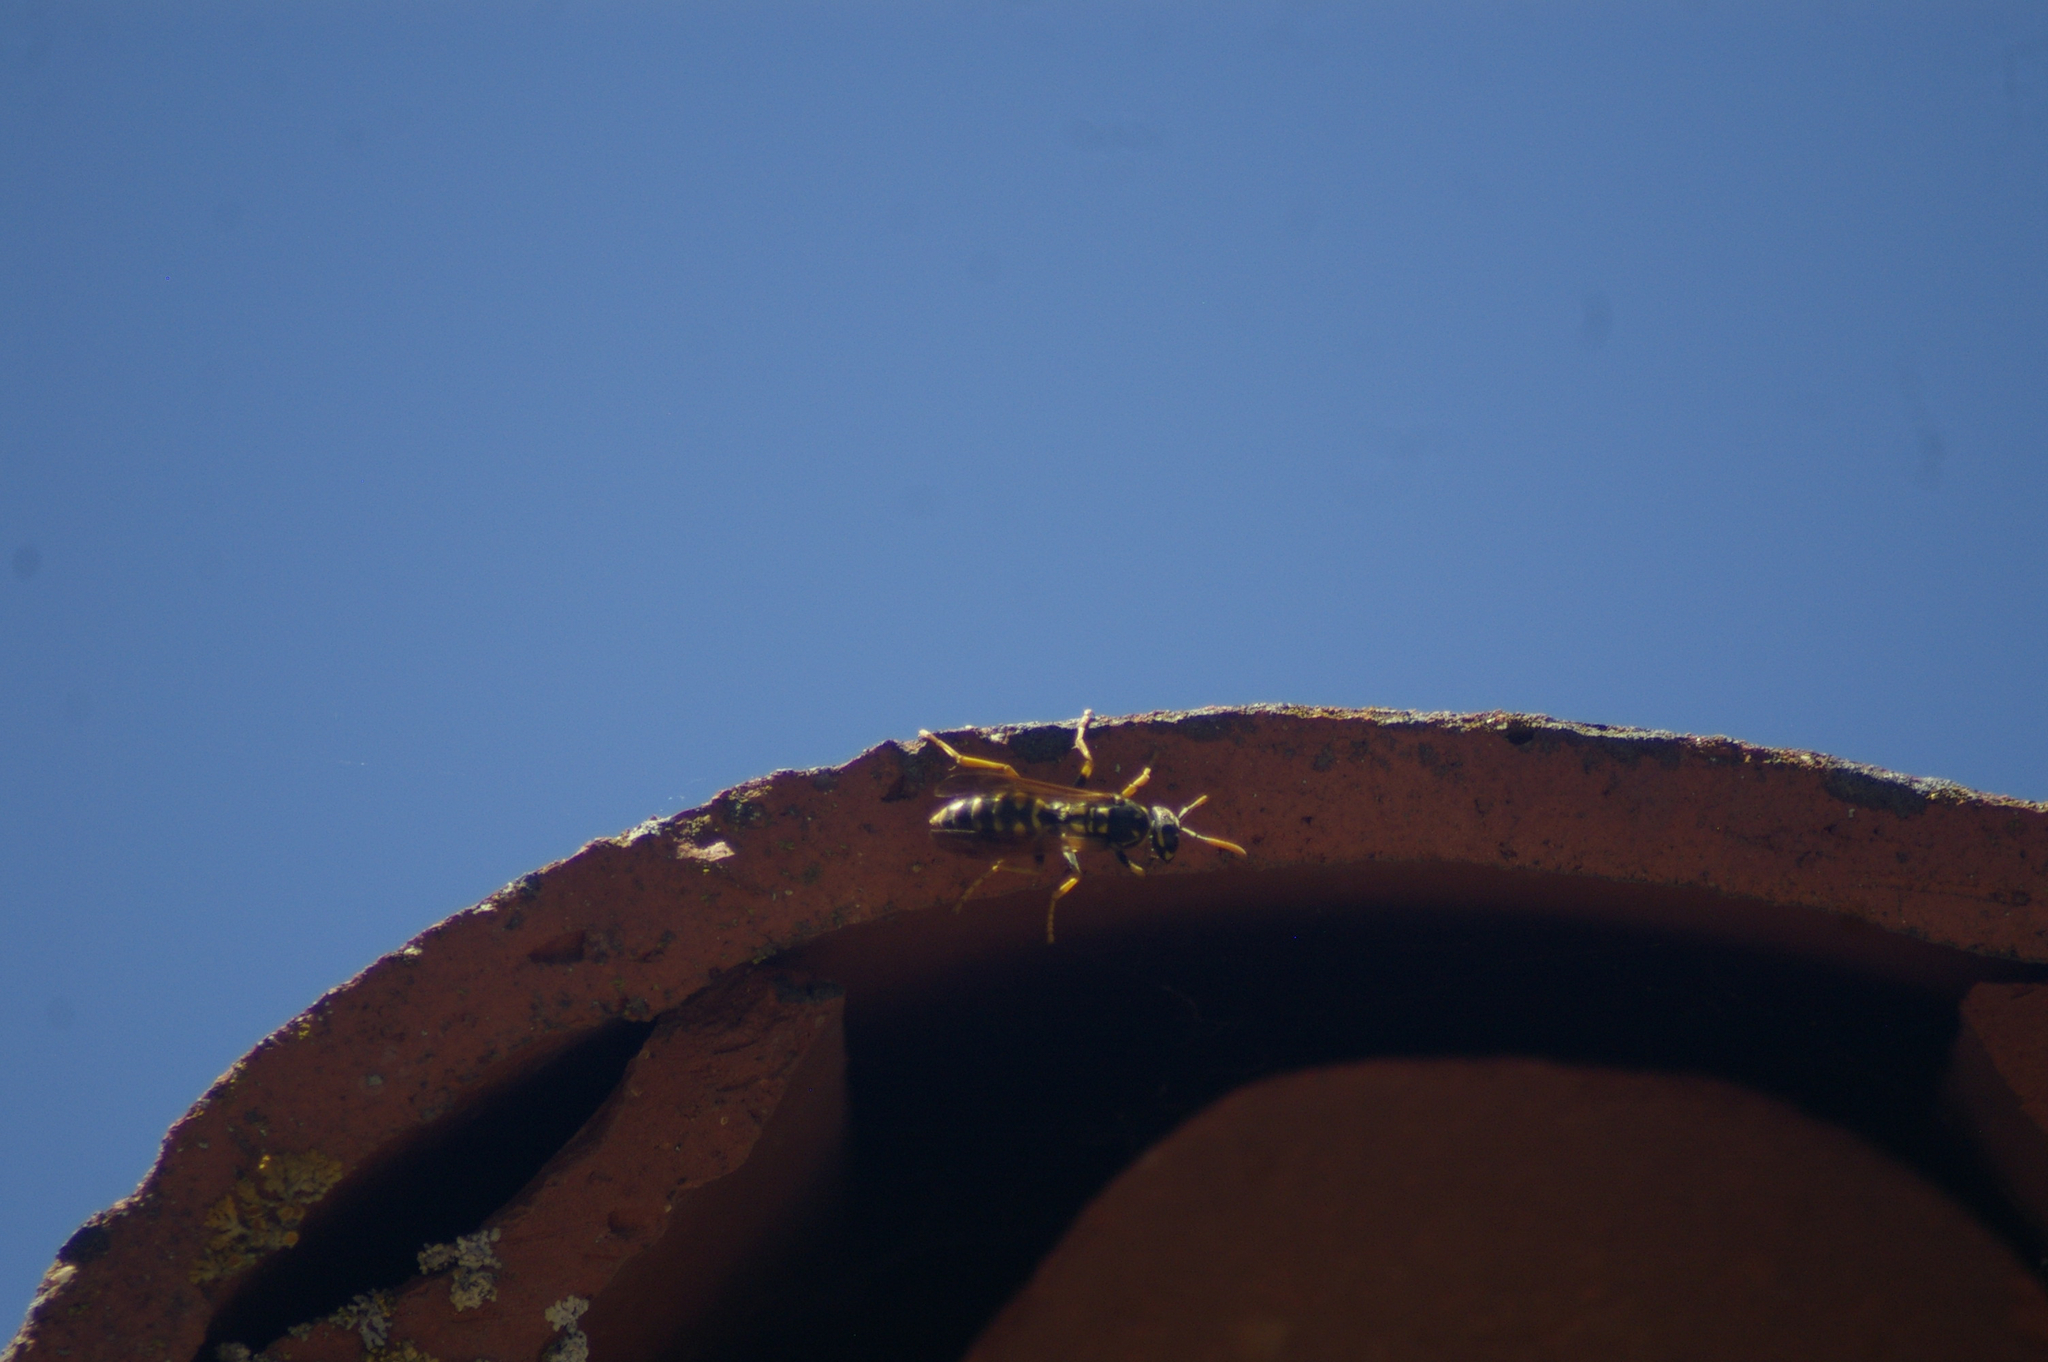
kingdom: Animalia
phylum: Arthropoda
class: Insecta
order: Hymenoptera
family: Eumenidae
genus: Polistes
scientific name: Polistes dominula
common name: Paper wasp
